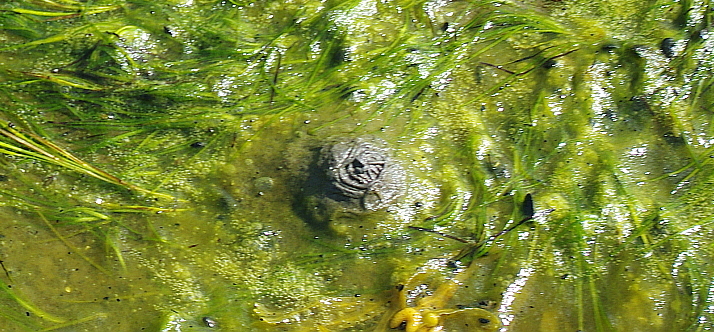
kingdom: Animalia
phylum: Annelida
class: Polychaeta
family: Arenicolidae
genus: Arenicola
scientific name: Arenicola marina
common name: Blow lugworm
